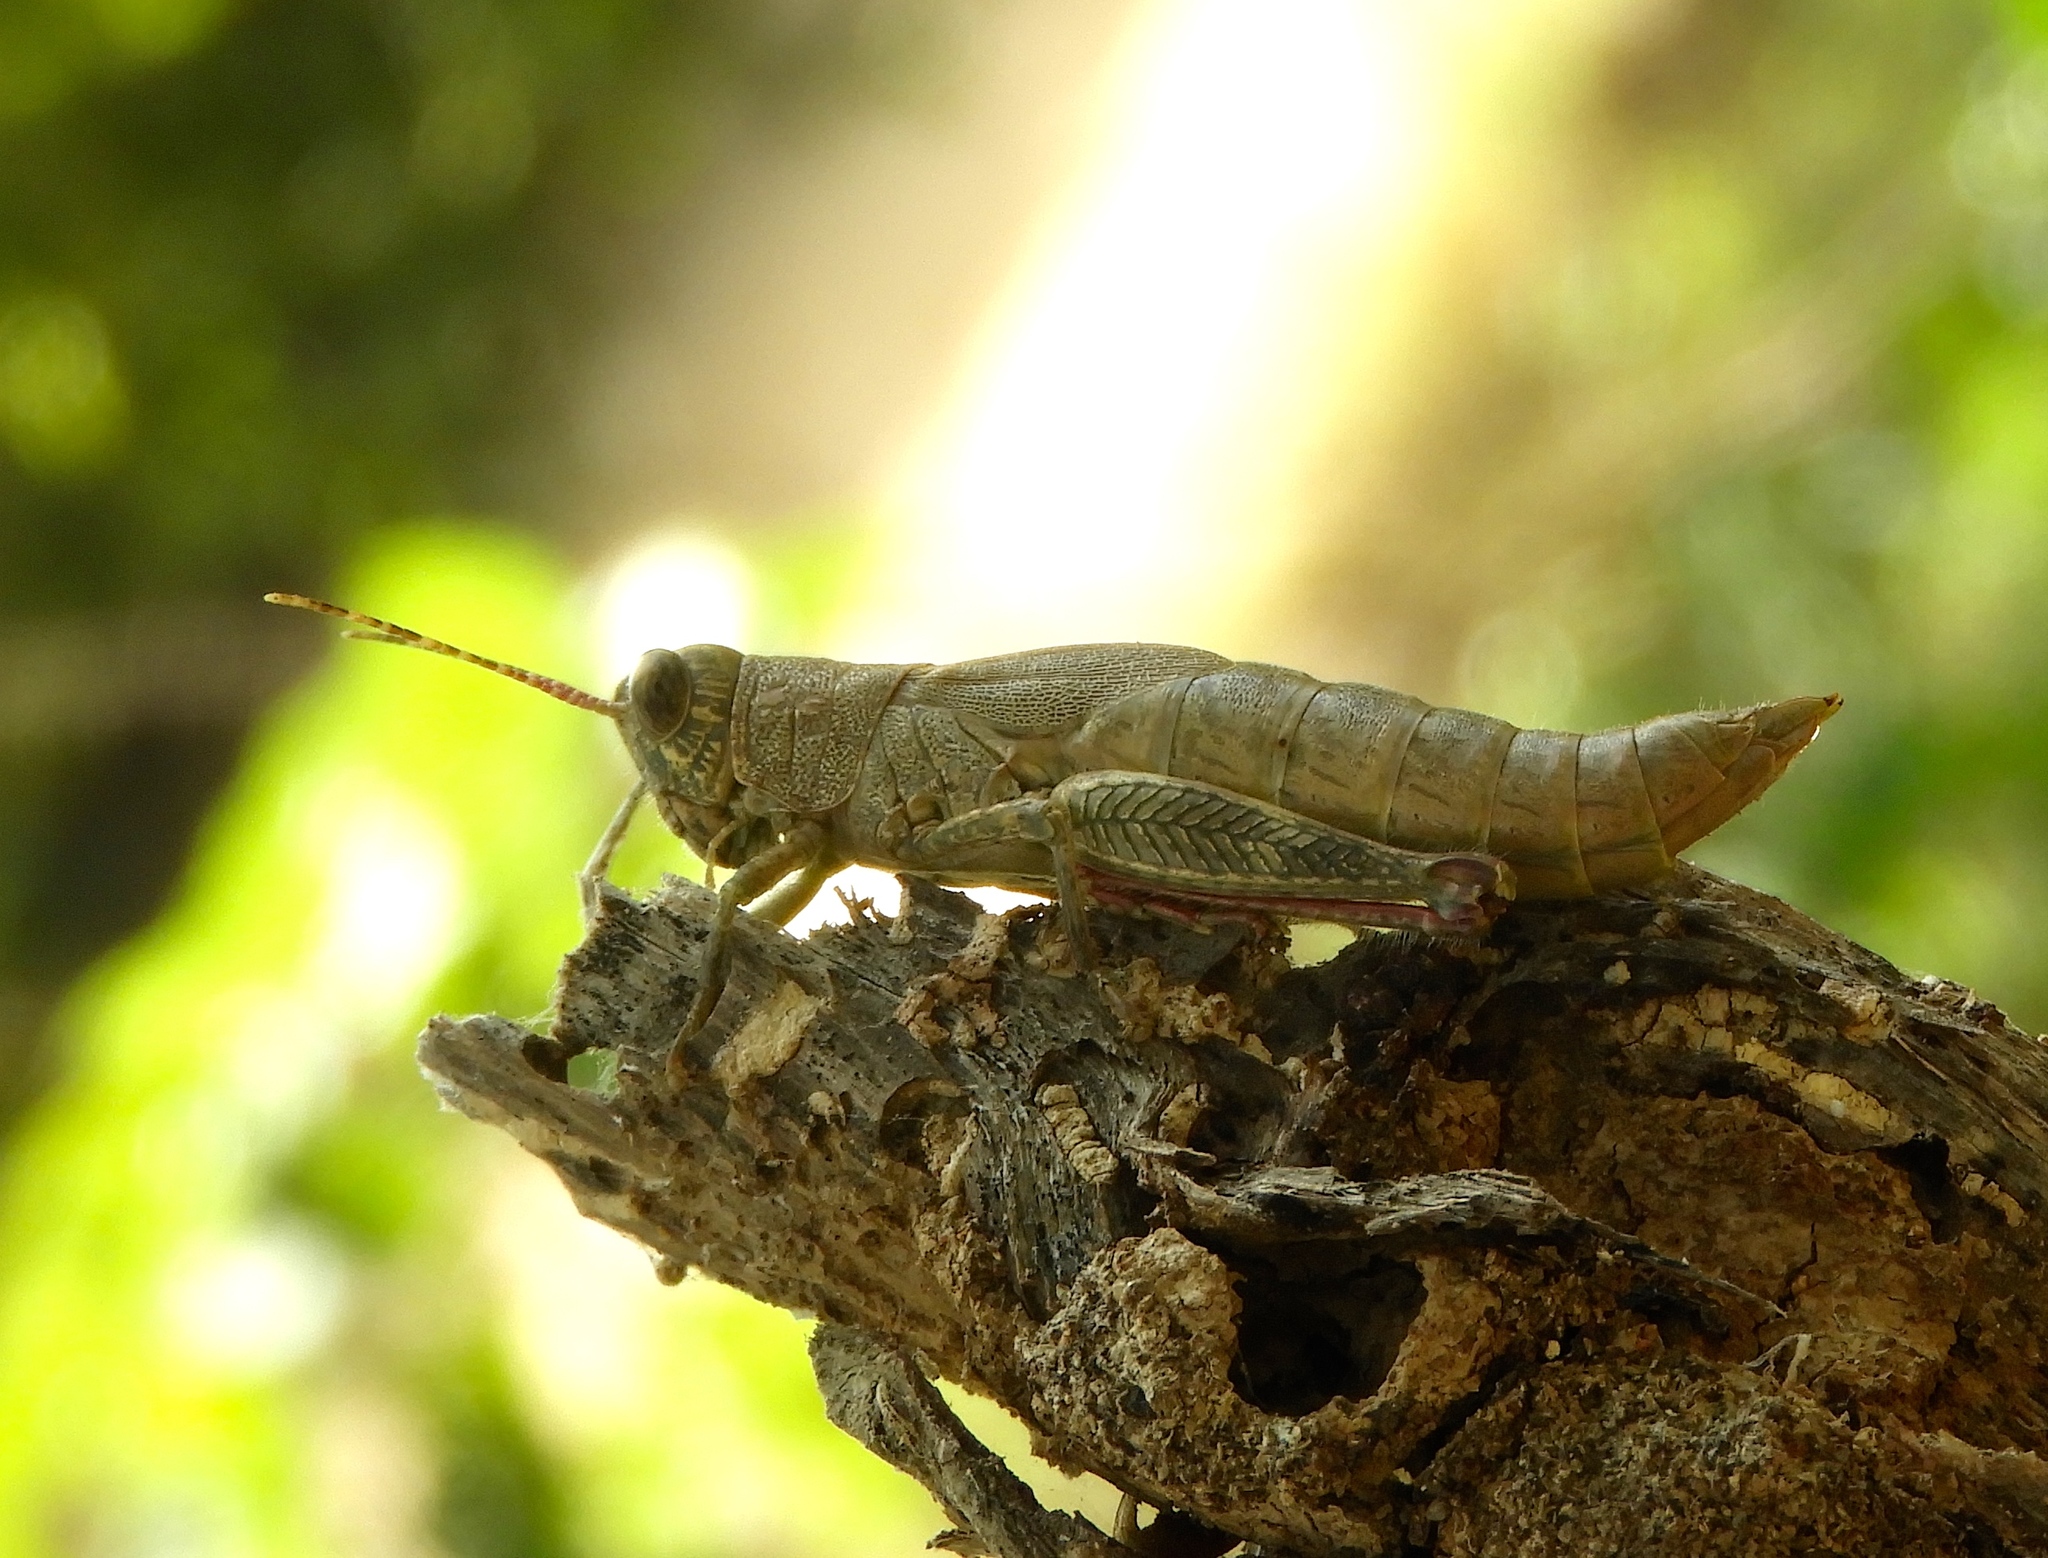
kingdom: Animalia
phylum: Arthropoda
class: Insecta
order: Orthoptera
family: Acrididae
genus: Proctolabus
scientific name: Proctolabus cerciatus
